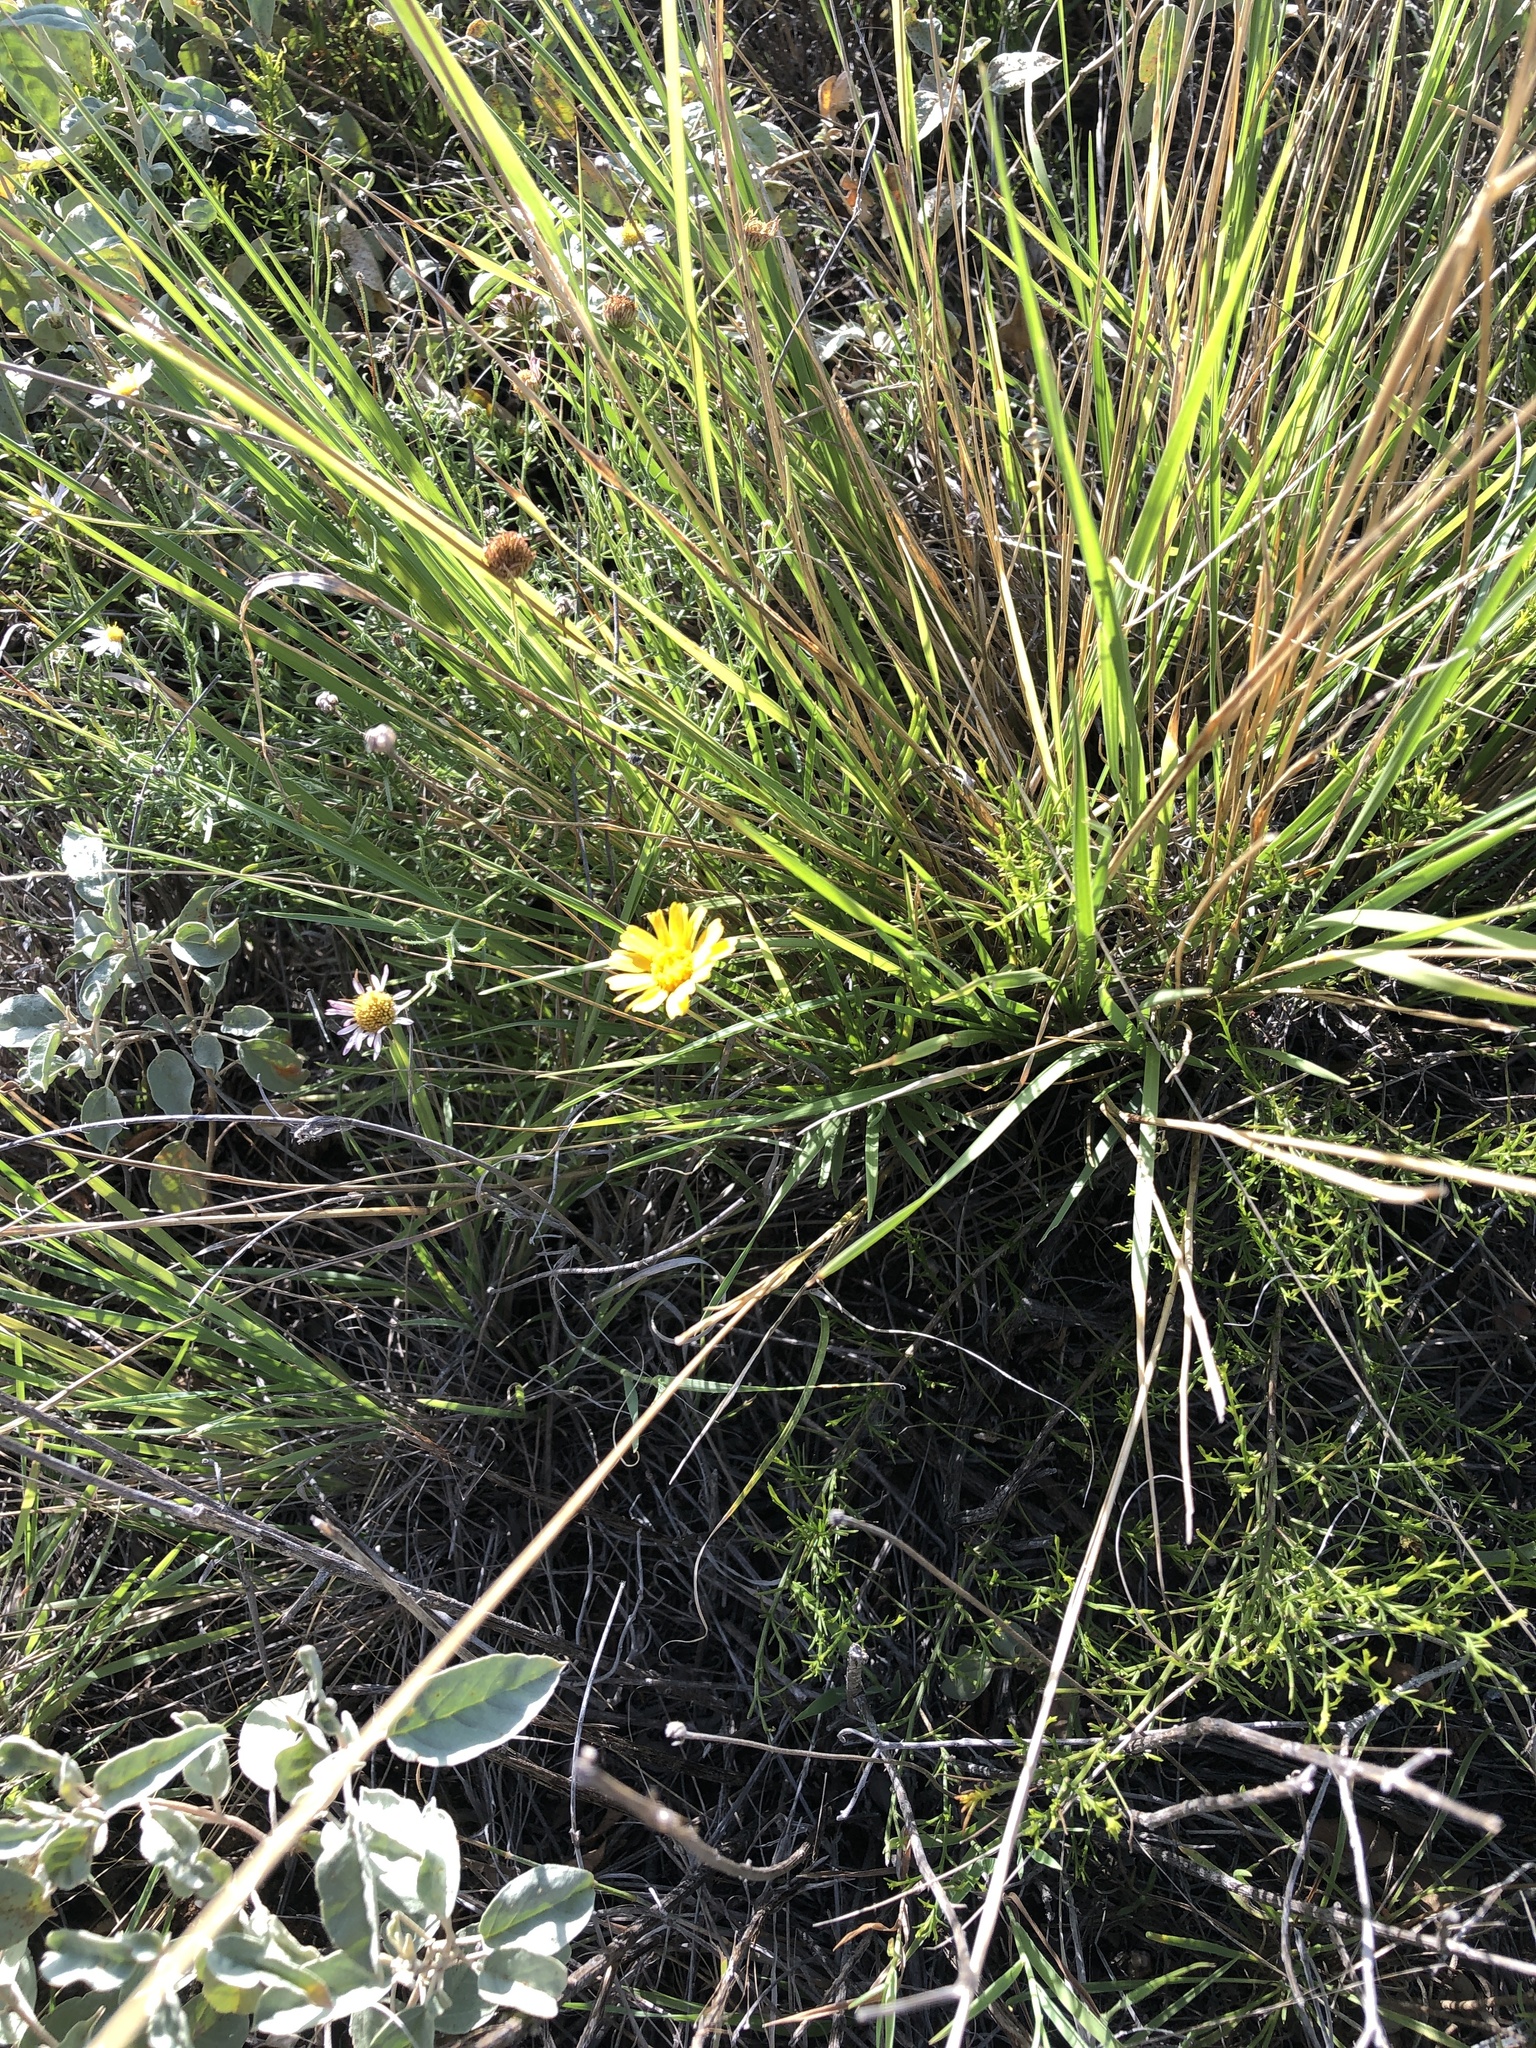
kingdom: Plantae
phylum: Tracheophyta
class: Magnoliopsida
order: Asterales
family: Asteraceae
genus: Tetraneuris
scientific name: Tetraneuris scaposa
